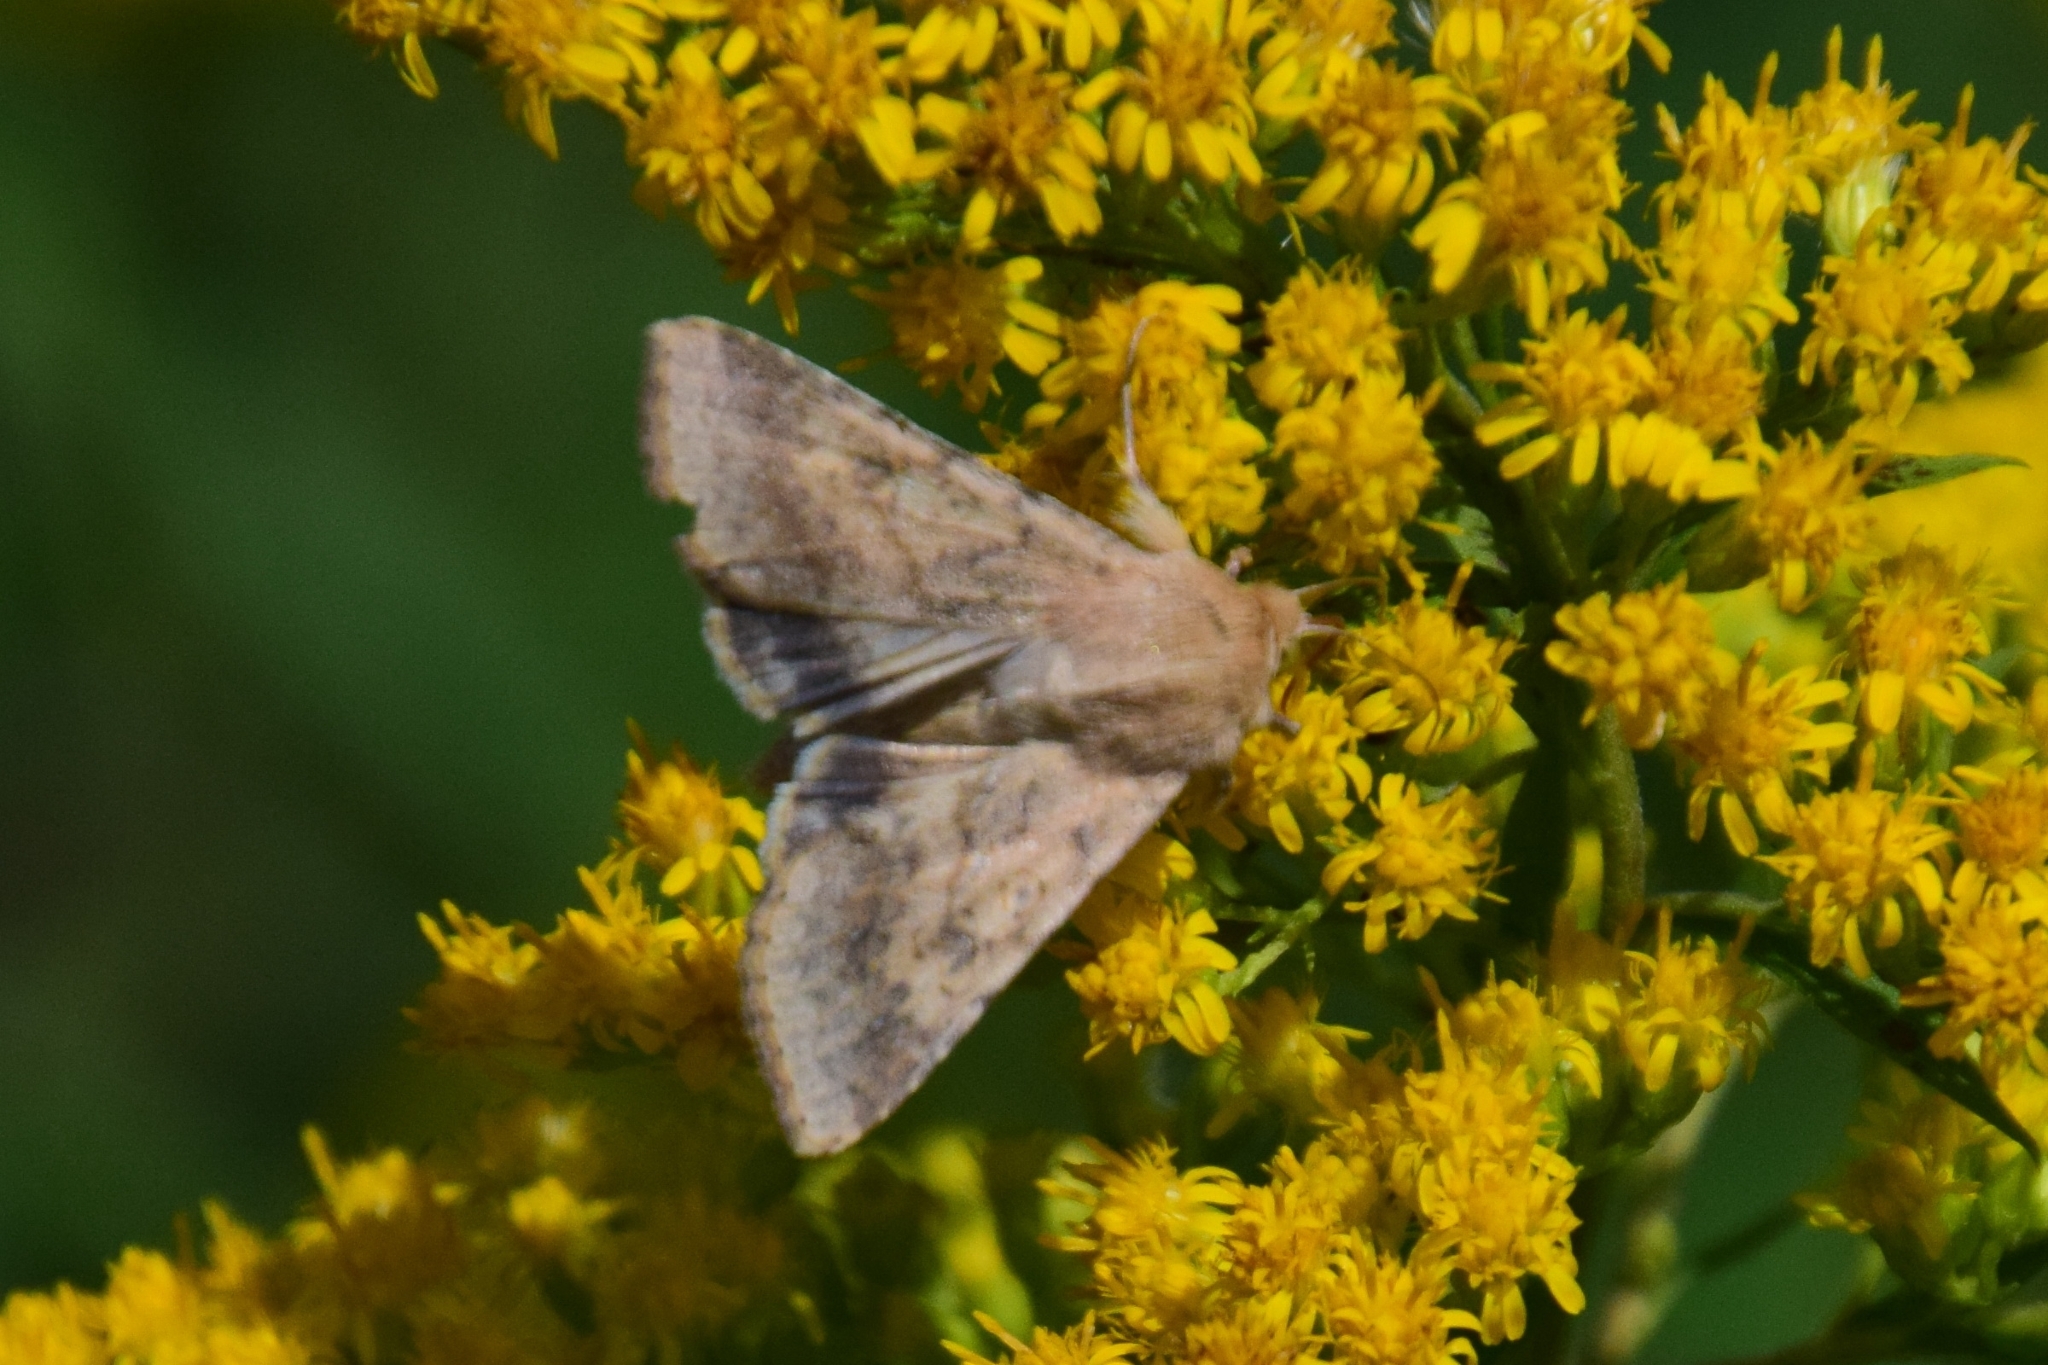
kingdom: Animalia
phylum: Arthropoda
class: Insecta
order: Lepidoptera
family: Noctuidae
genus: Helicoverpa
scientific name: Helicoverpa armigera
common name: Cotton bollworm
